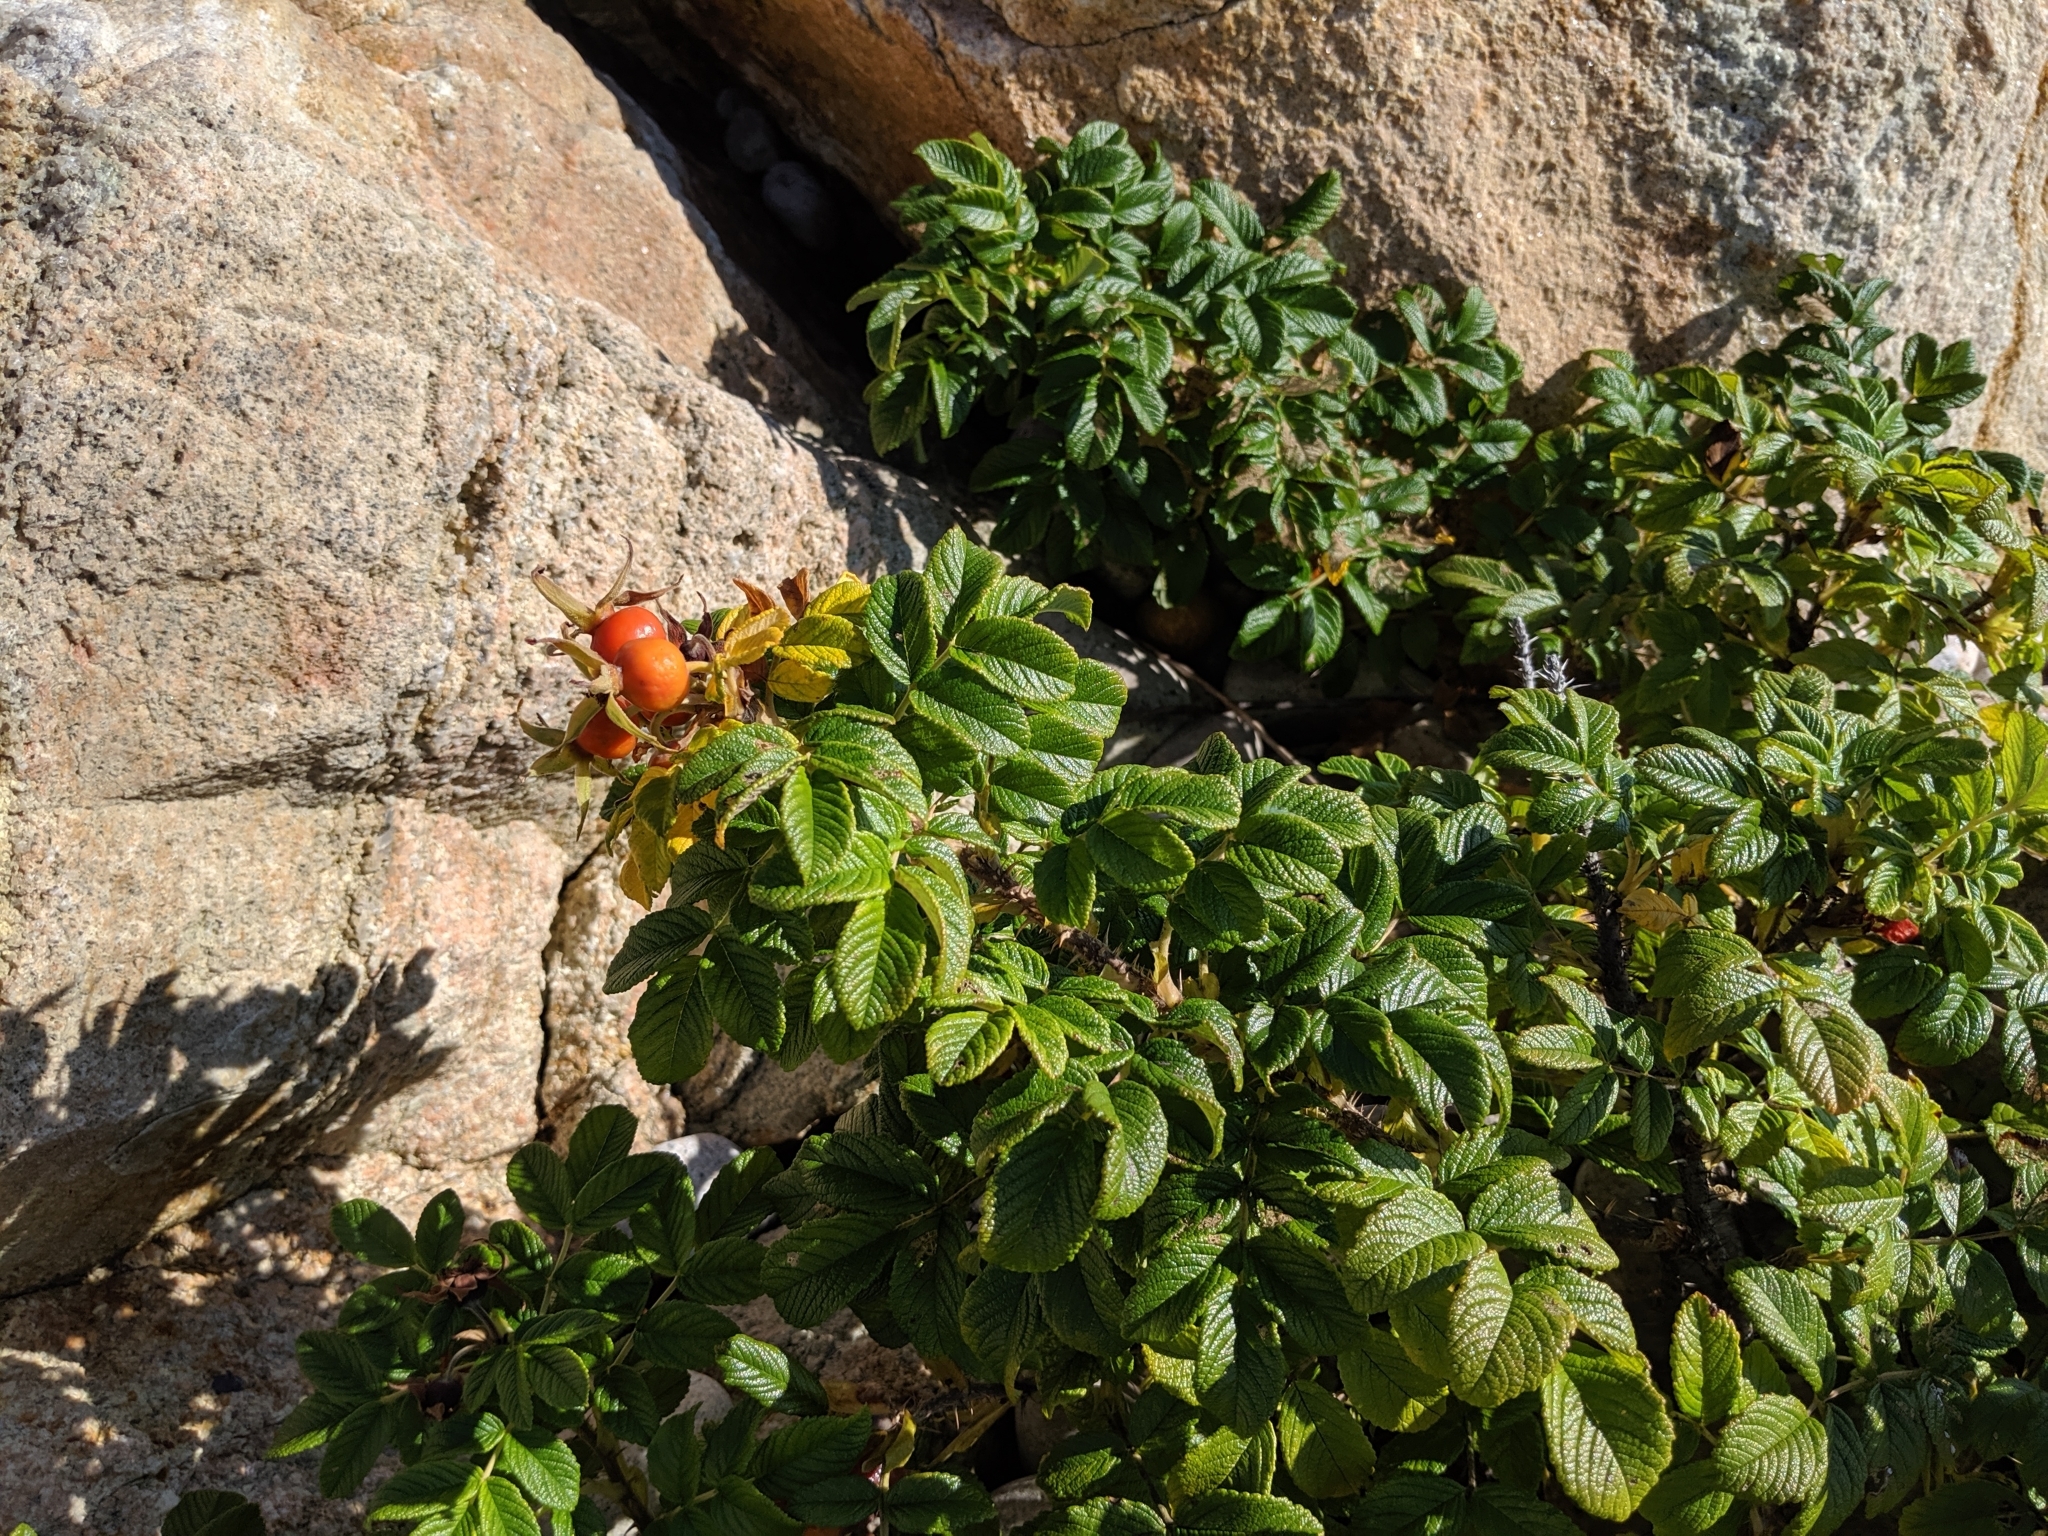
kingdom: Plantae
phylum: Tracheophyta
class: Magnoliopsida
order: Rosales
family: Rosaceae
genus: Rosa
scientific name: Rosa rugosa
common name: Japanese rose
